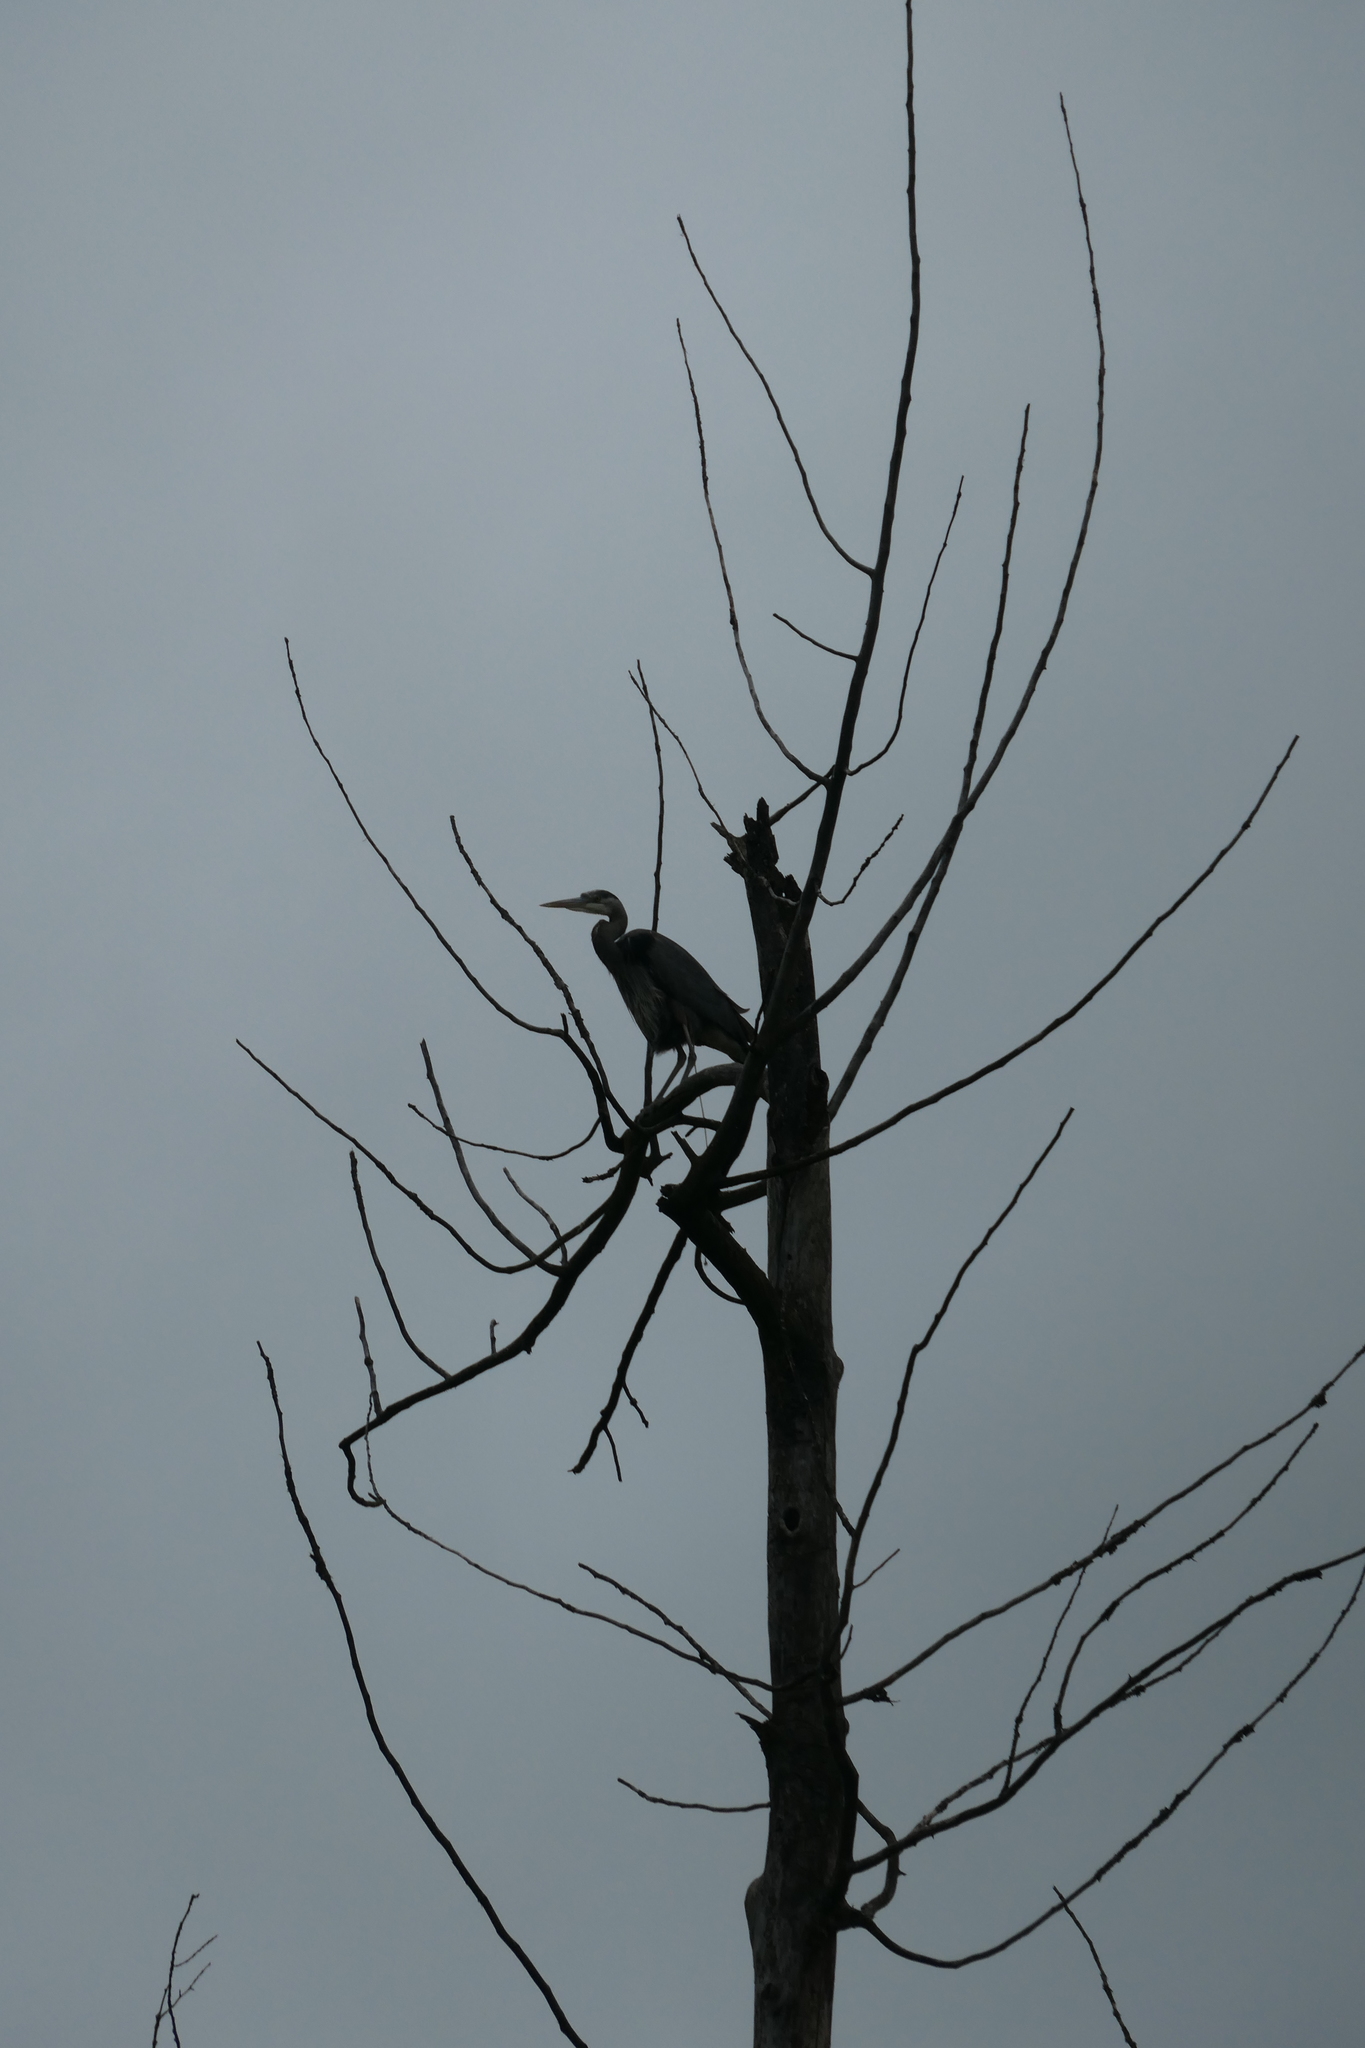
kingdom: Animalia
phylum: Chordata
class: Aves
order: Pelecaniformes
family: Ardeidae
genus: Ardea
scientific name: Ardea herodias
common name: Great blue heron
